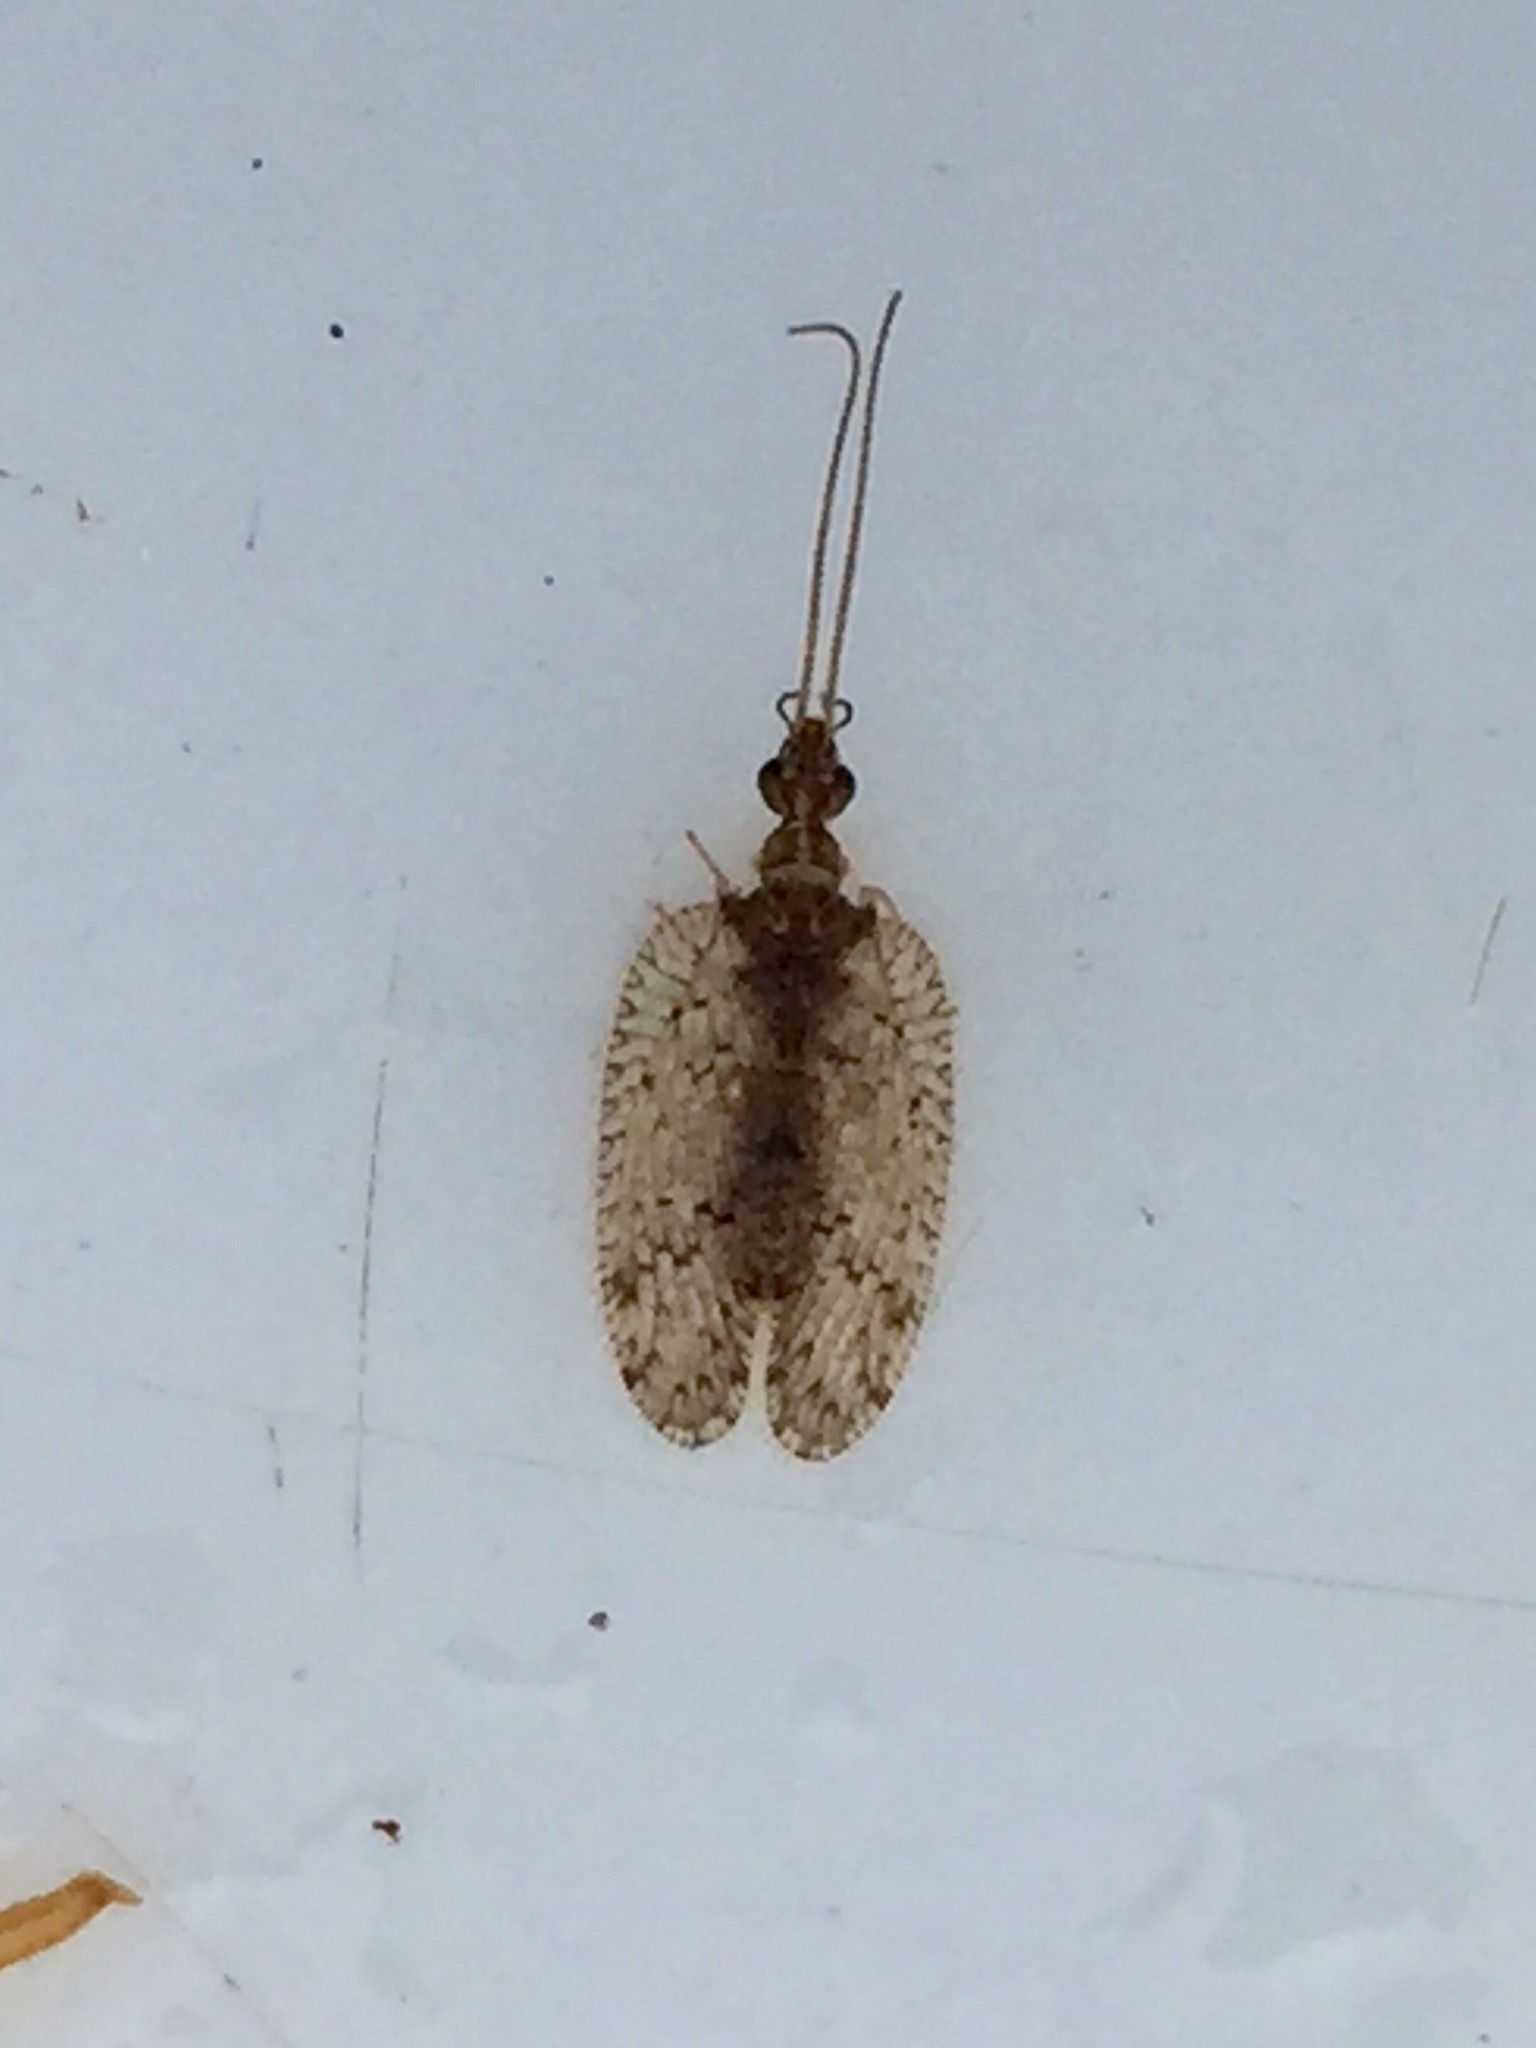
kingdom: Animalia
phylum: Arthropoda
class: Insecta
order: Neuroptera
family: Hemerobiidae
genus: Psectra
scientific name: Psectra nakaharai
